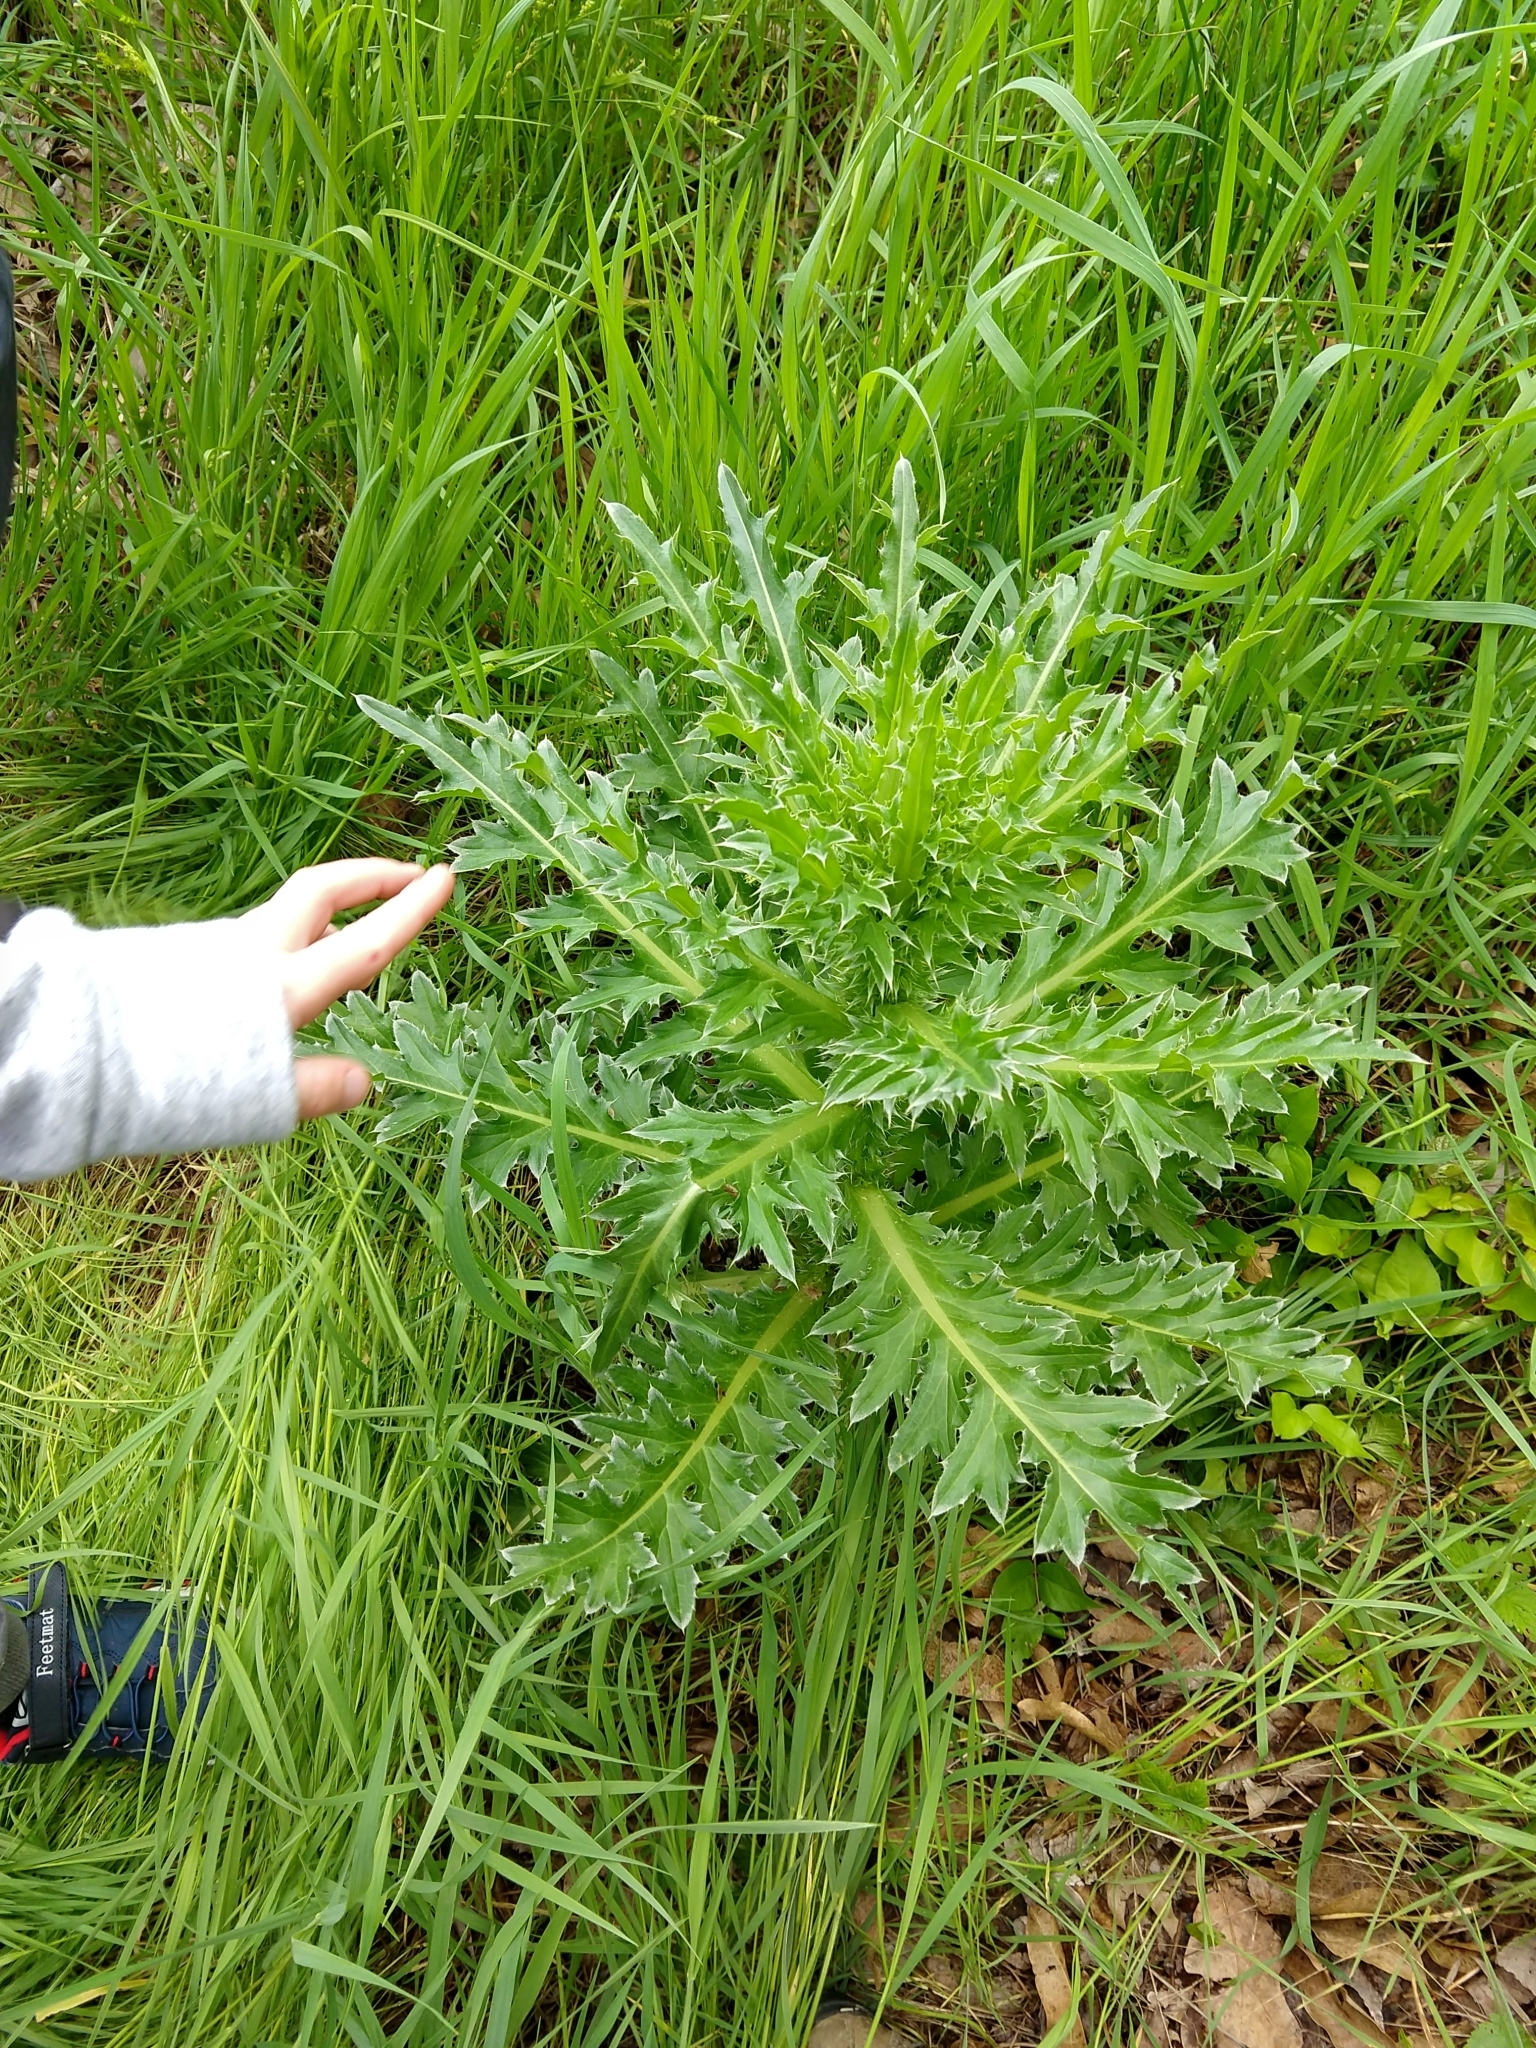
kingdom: Plantae
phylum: Tracheophyta
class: Magnoliopsida
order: Asterales
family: Asteraceae
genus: Carduus
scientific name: Carduus nutans
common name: Musk thistle
